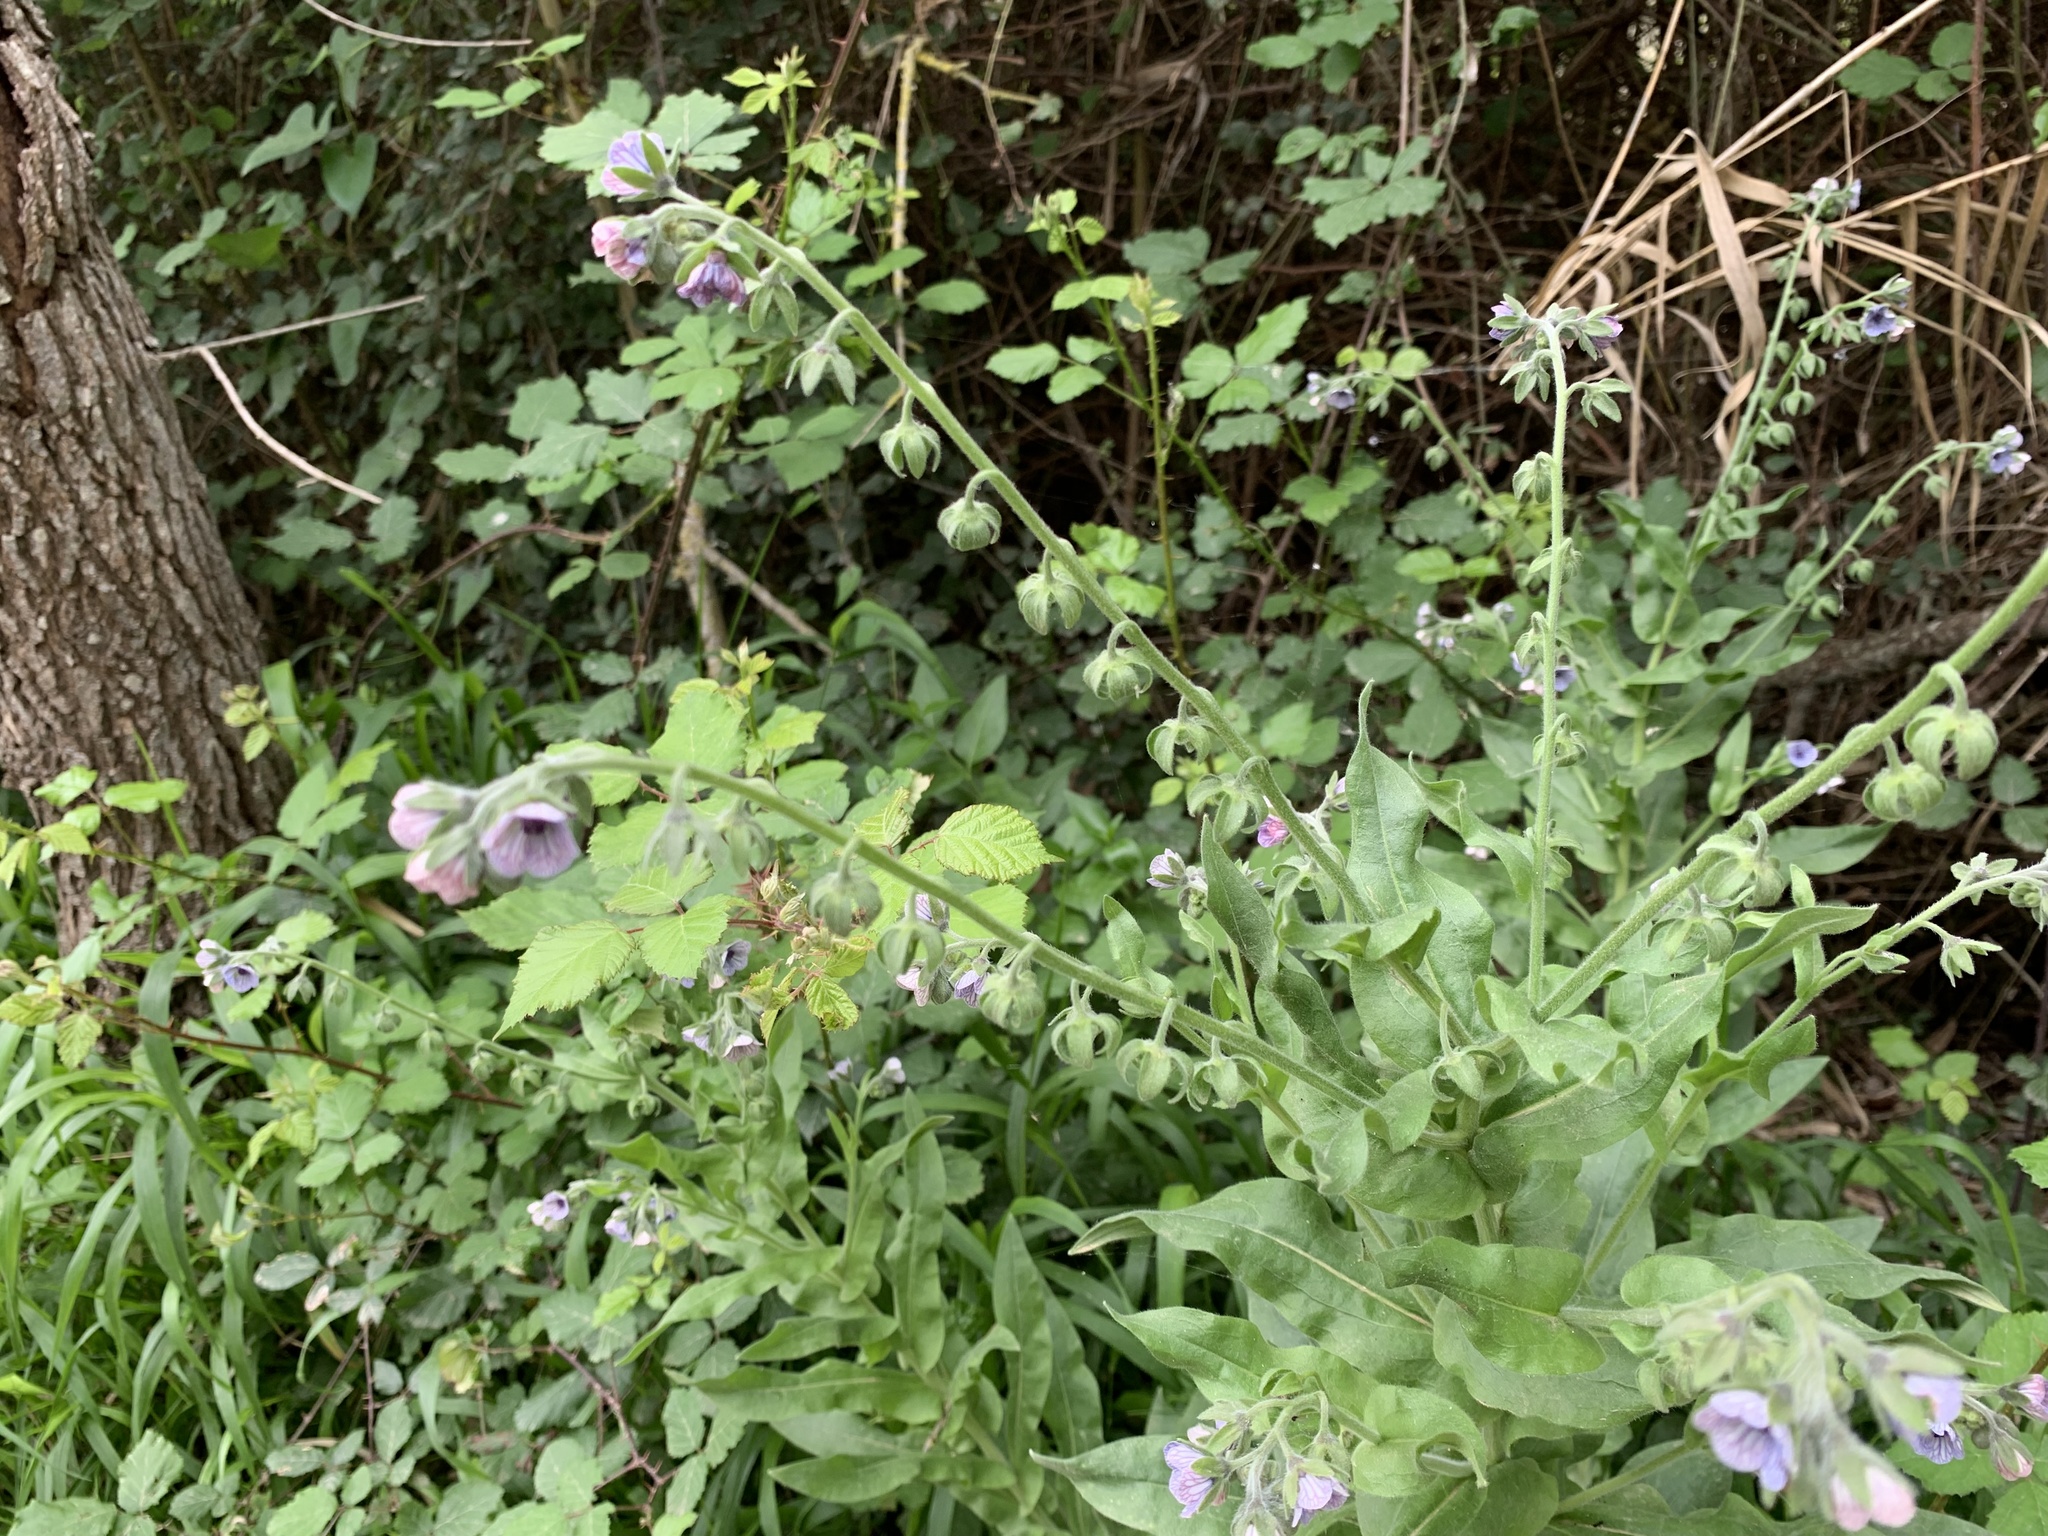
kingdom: Plantae
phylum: Tracheophyta
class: Magnoliopsida
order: Boraginales
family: Boraginaceae
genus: Cynoglossum
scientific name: Cynoglossum creticum
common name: Blue hound's tongue
